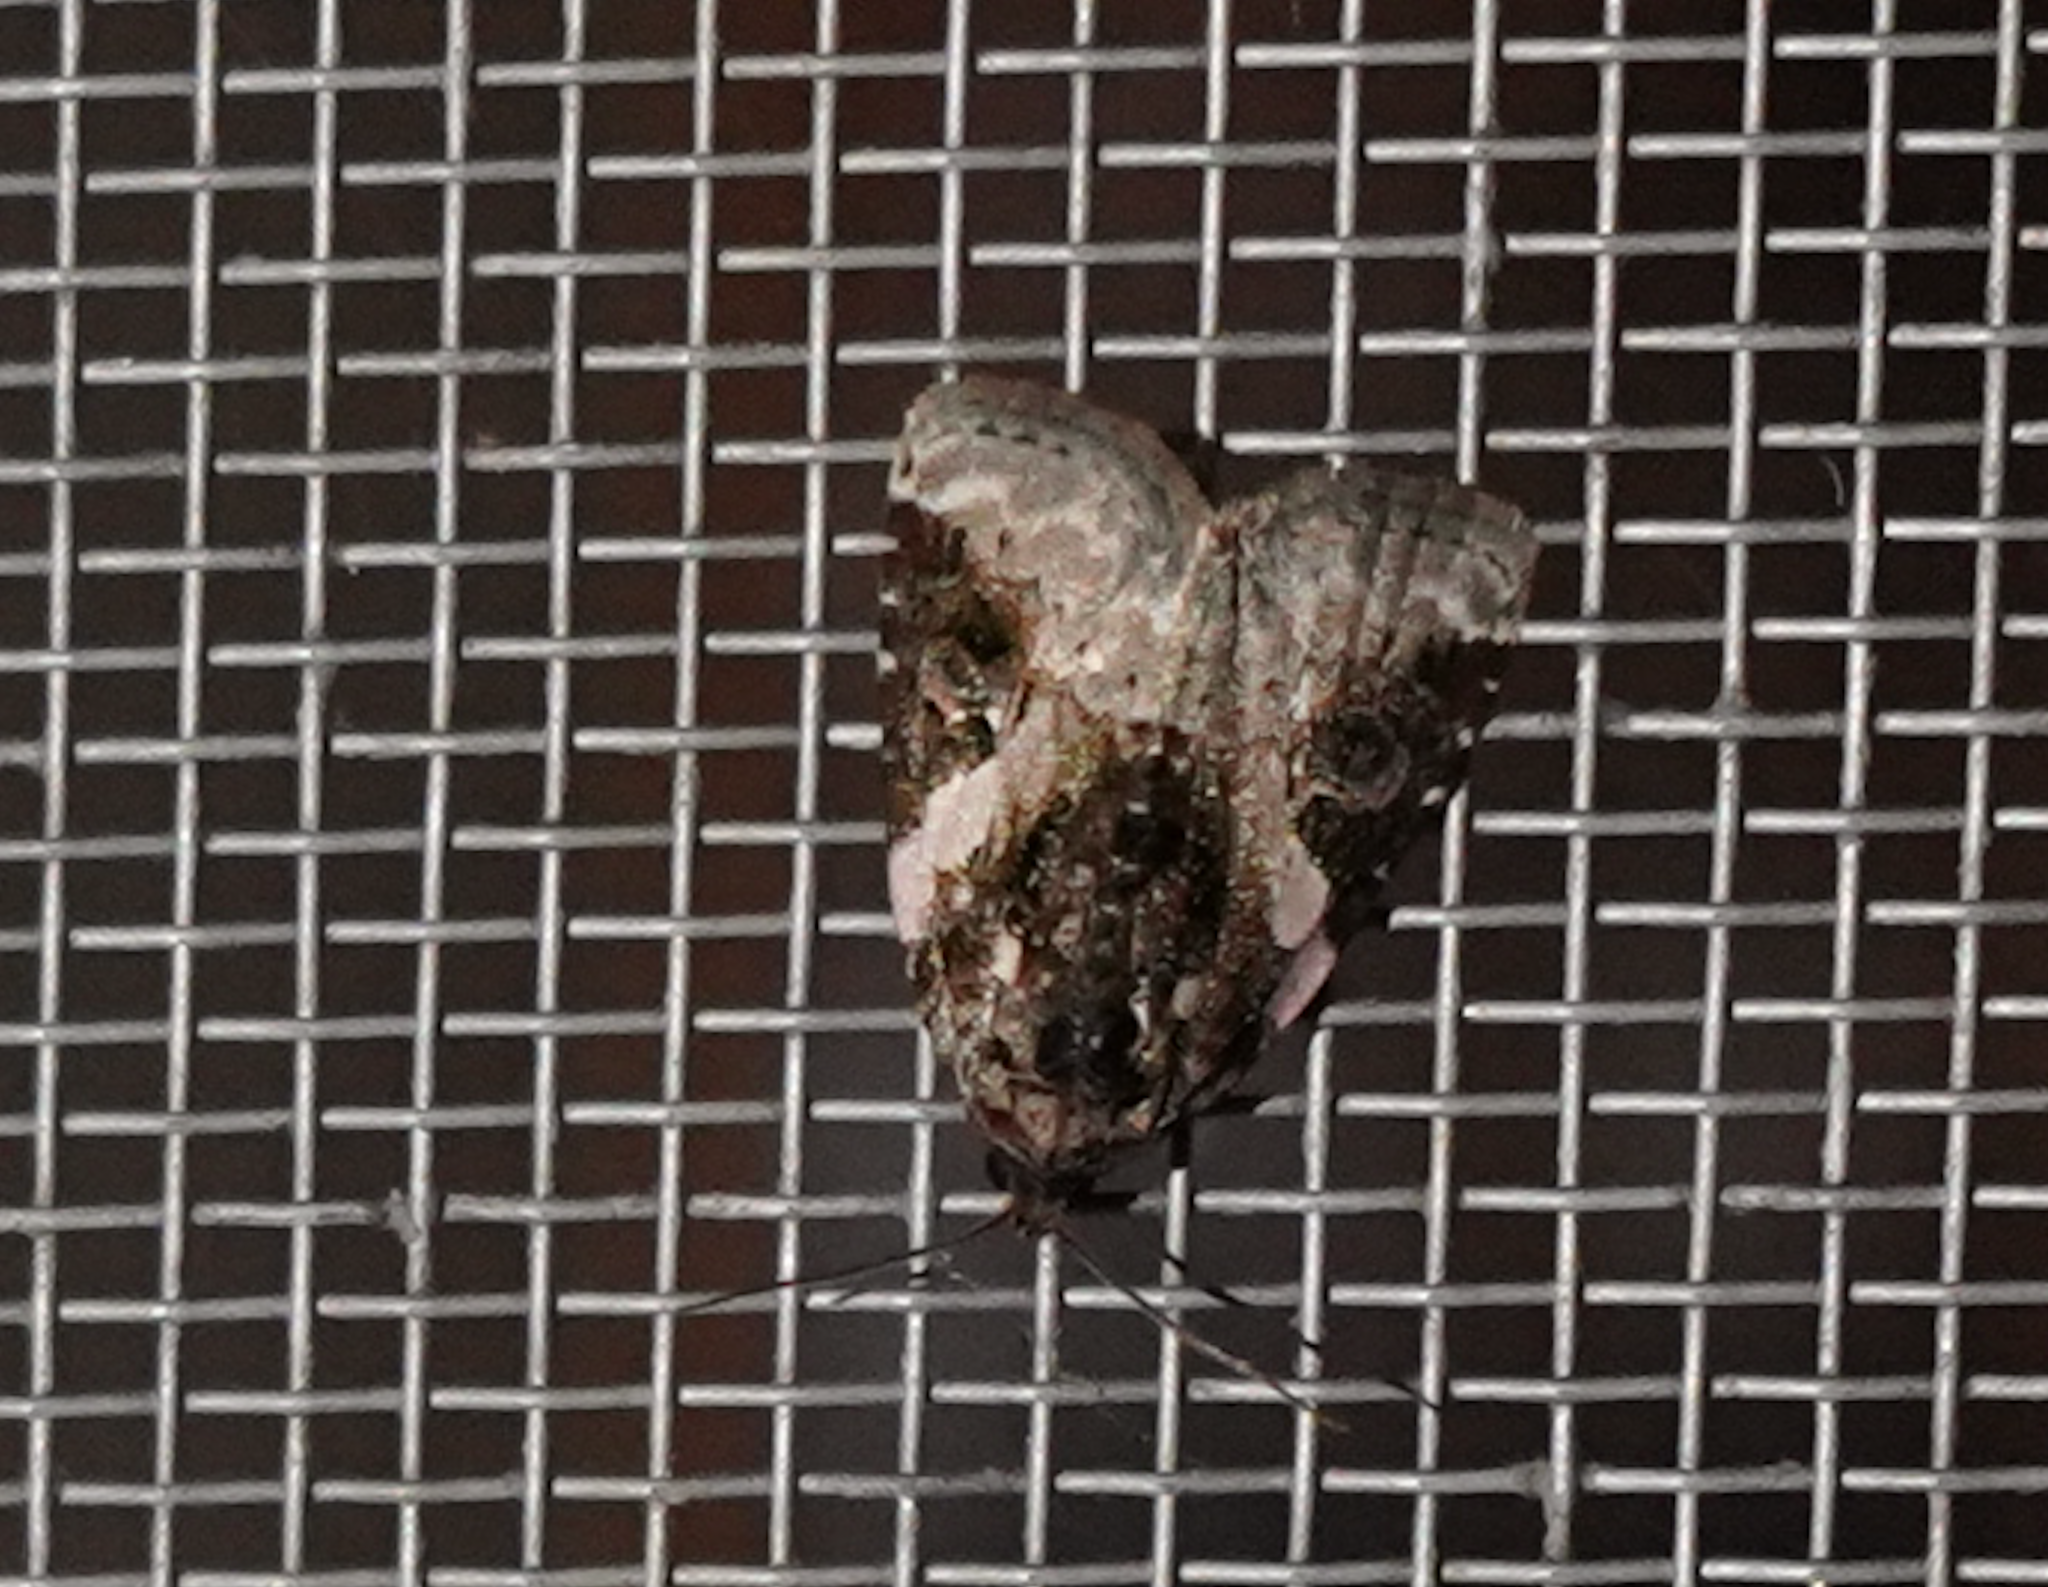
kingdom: Animalia
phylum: Arthropoda
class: Insecta
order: Lepidoptera
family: Noctuidae
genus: Pseudeustrotia
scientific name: Pseudeustrotia carneola
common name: Pink-barred lithacodia moth
